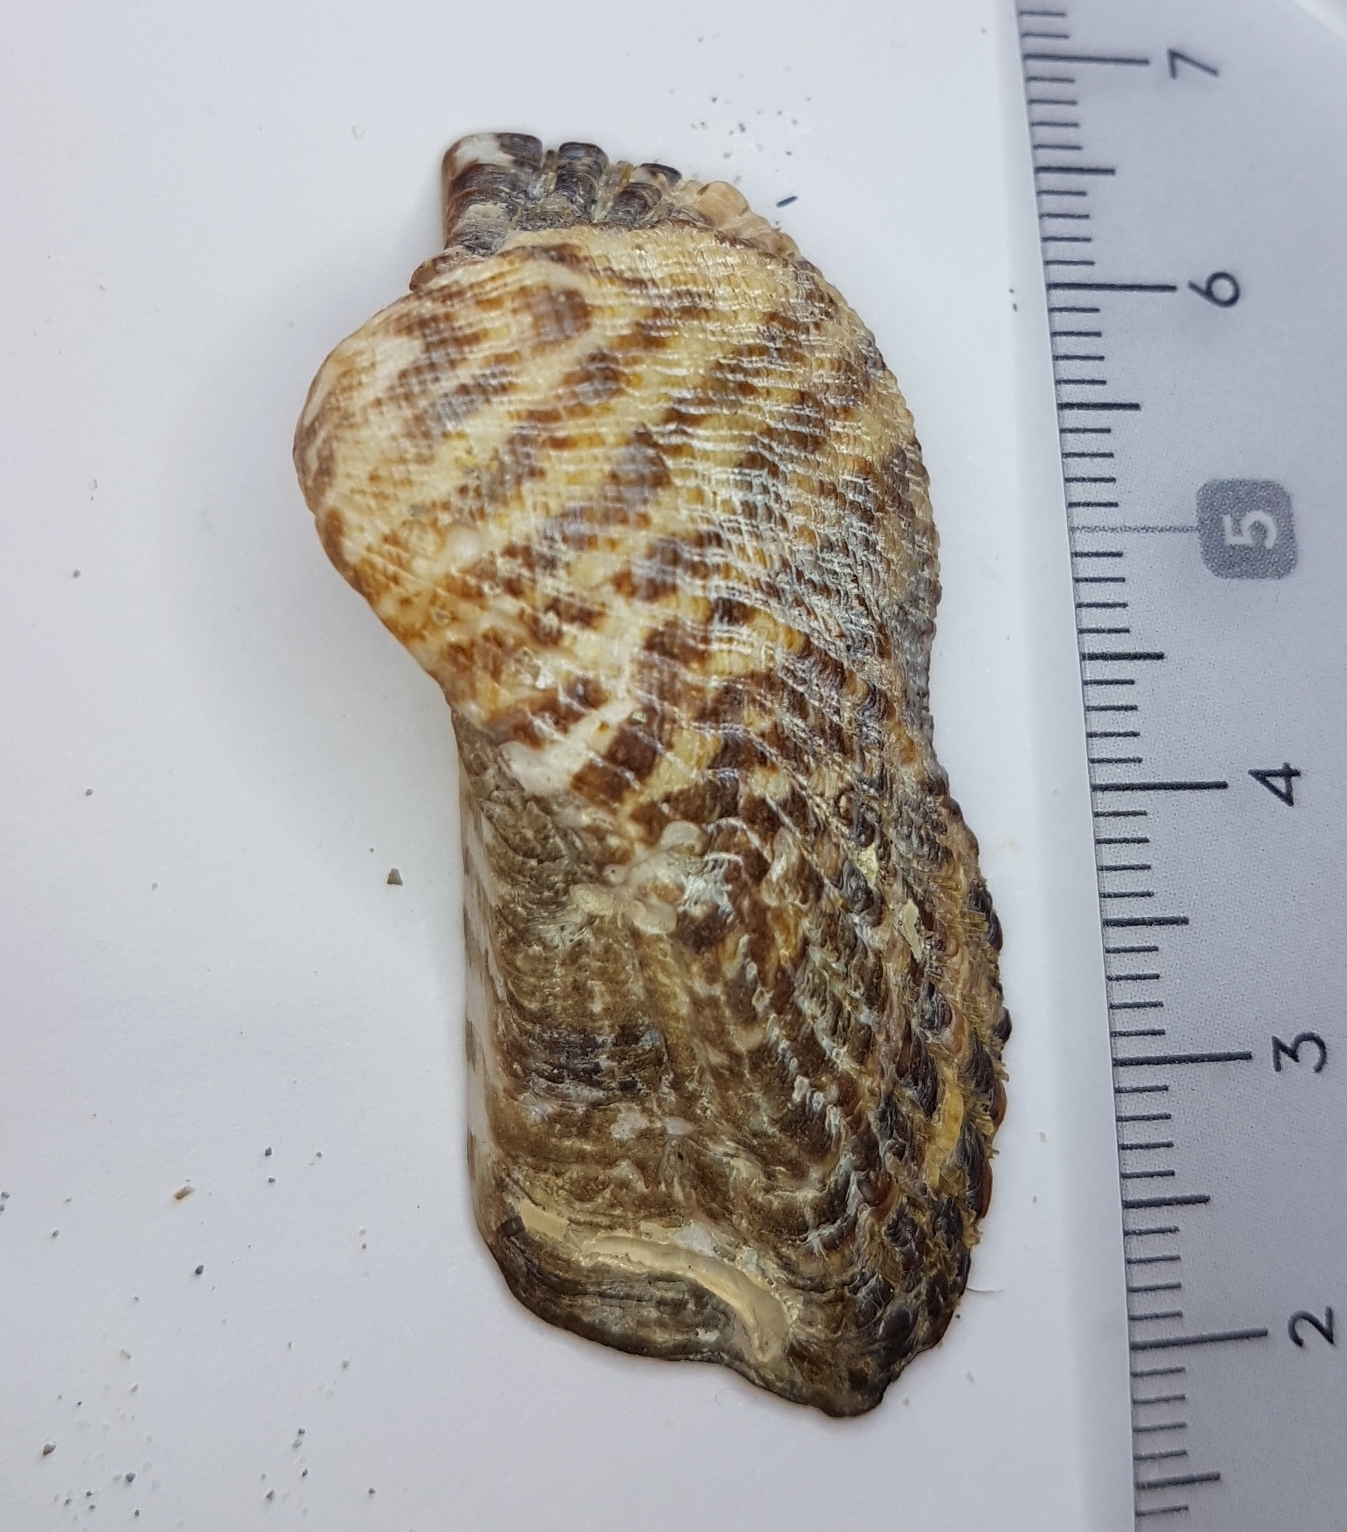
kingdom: Animalia
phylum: Mollusca
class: Bivalvia
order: Arcida
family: Arcidae
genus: Arca
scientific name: Arca noae
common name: Noah's arch
